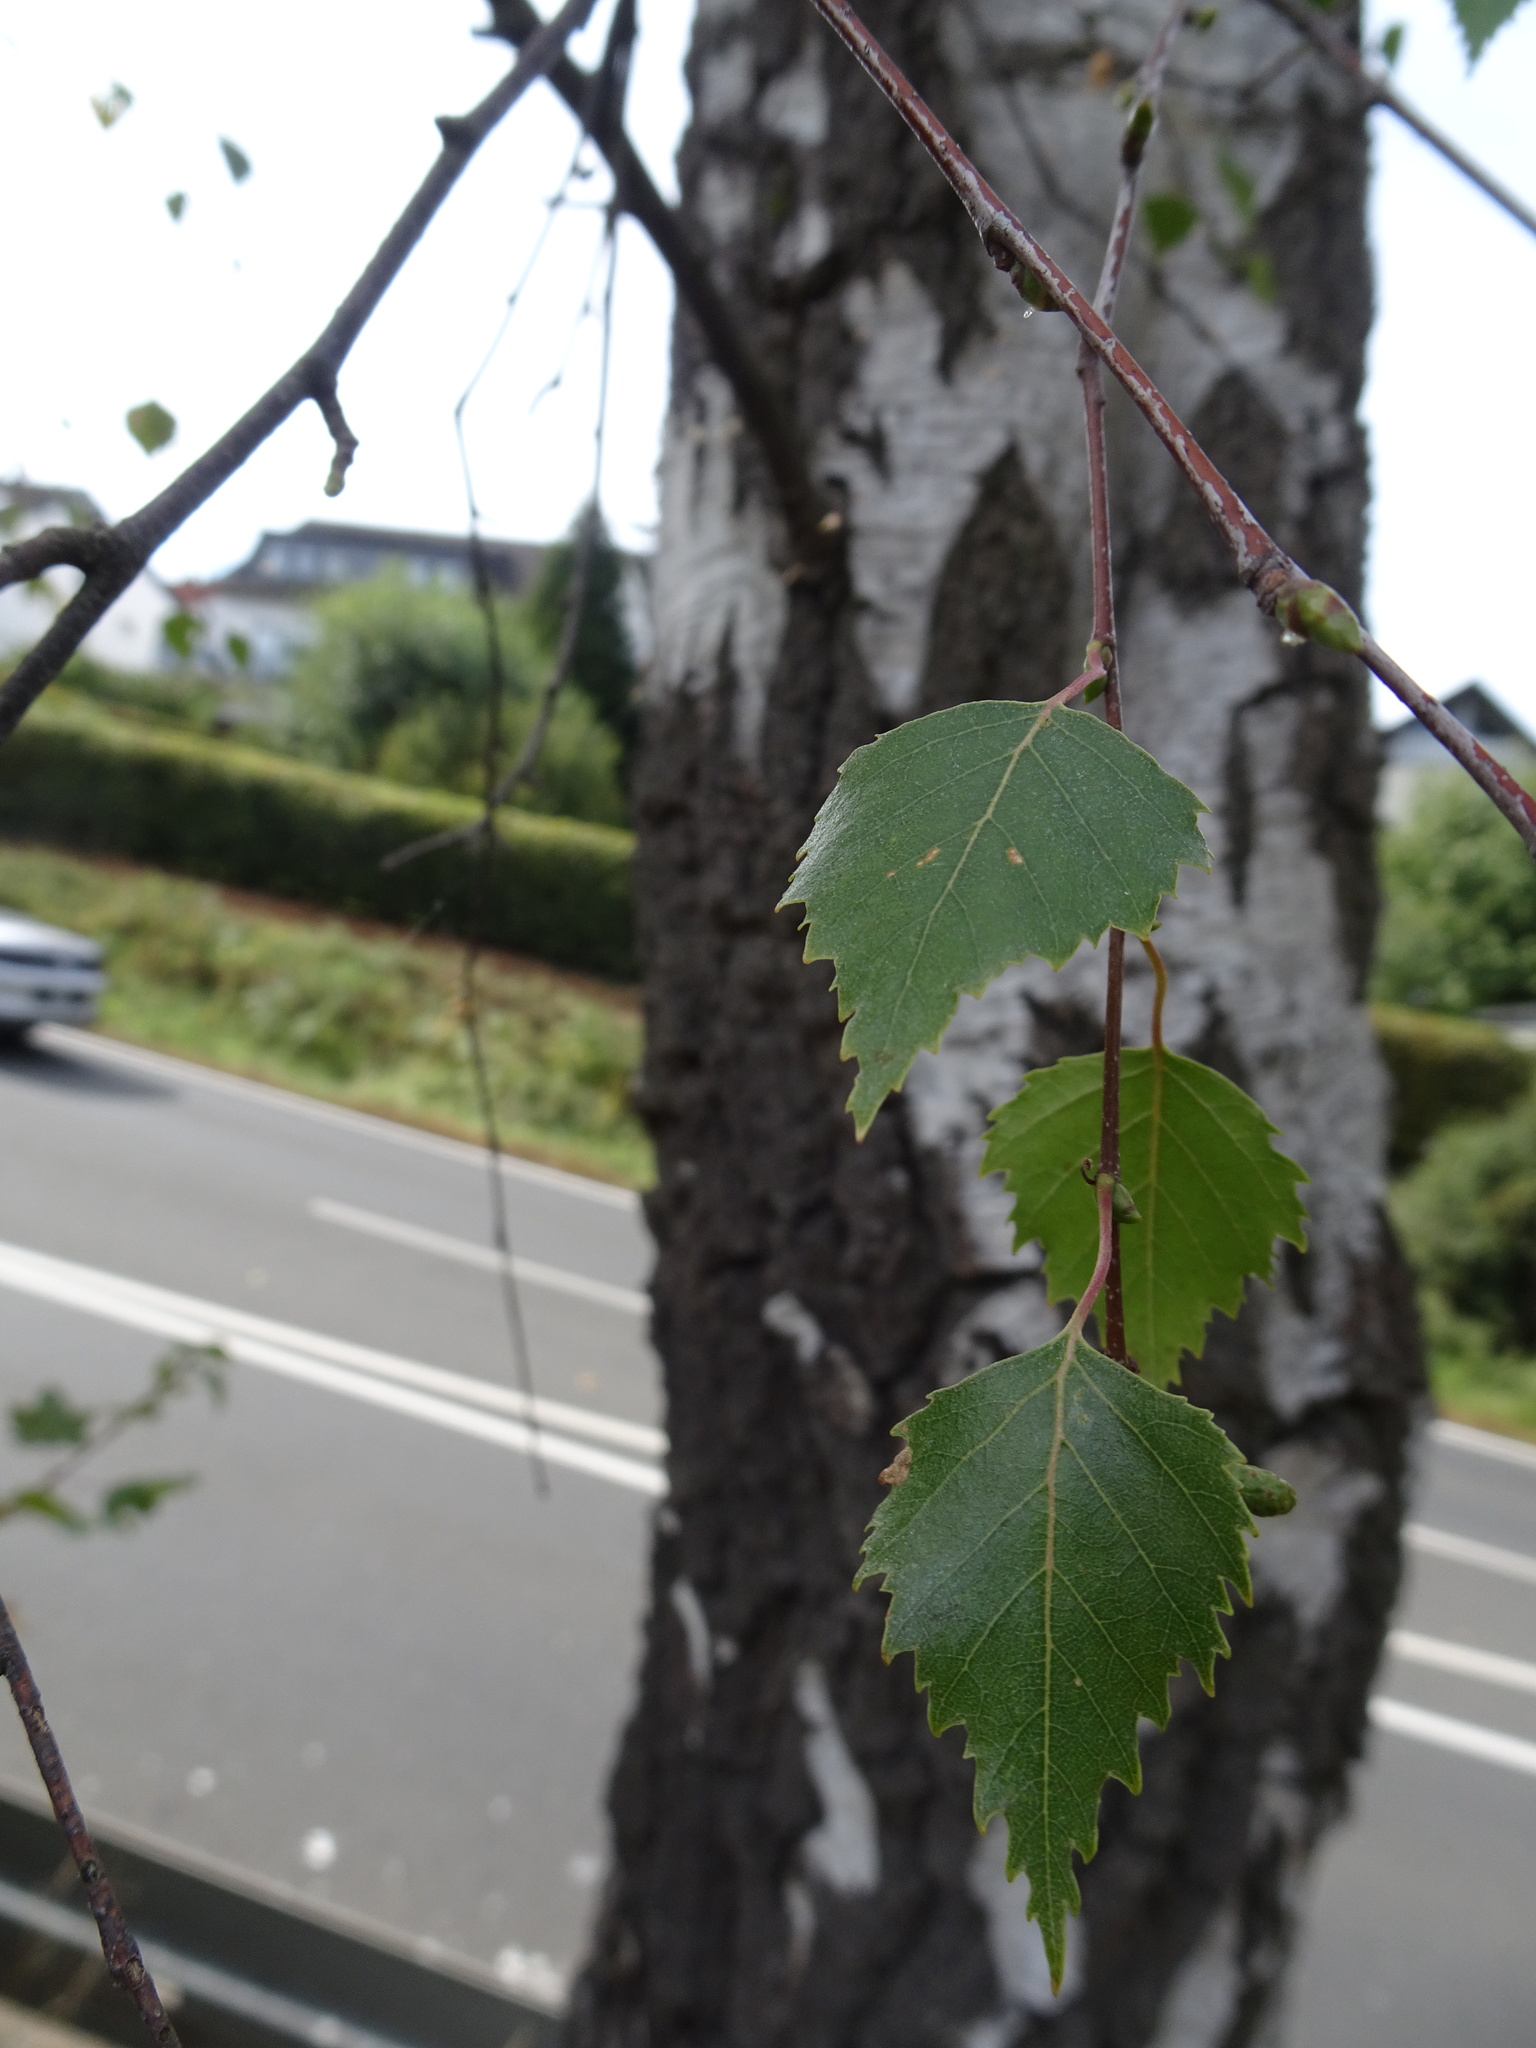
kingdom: Plantae
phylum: Tracheophyta
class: Magnoliopsida
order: Fagales
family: Betulaceae
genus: Betula
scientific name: Betula pendula
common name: Silver birch
